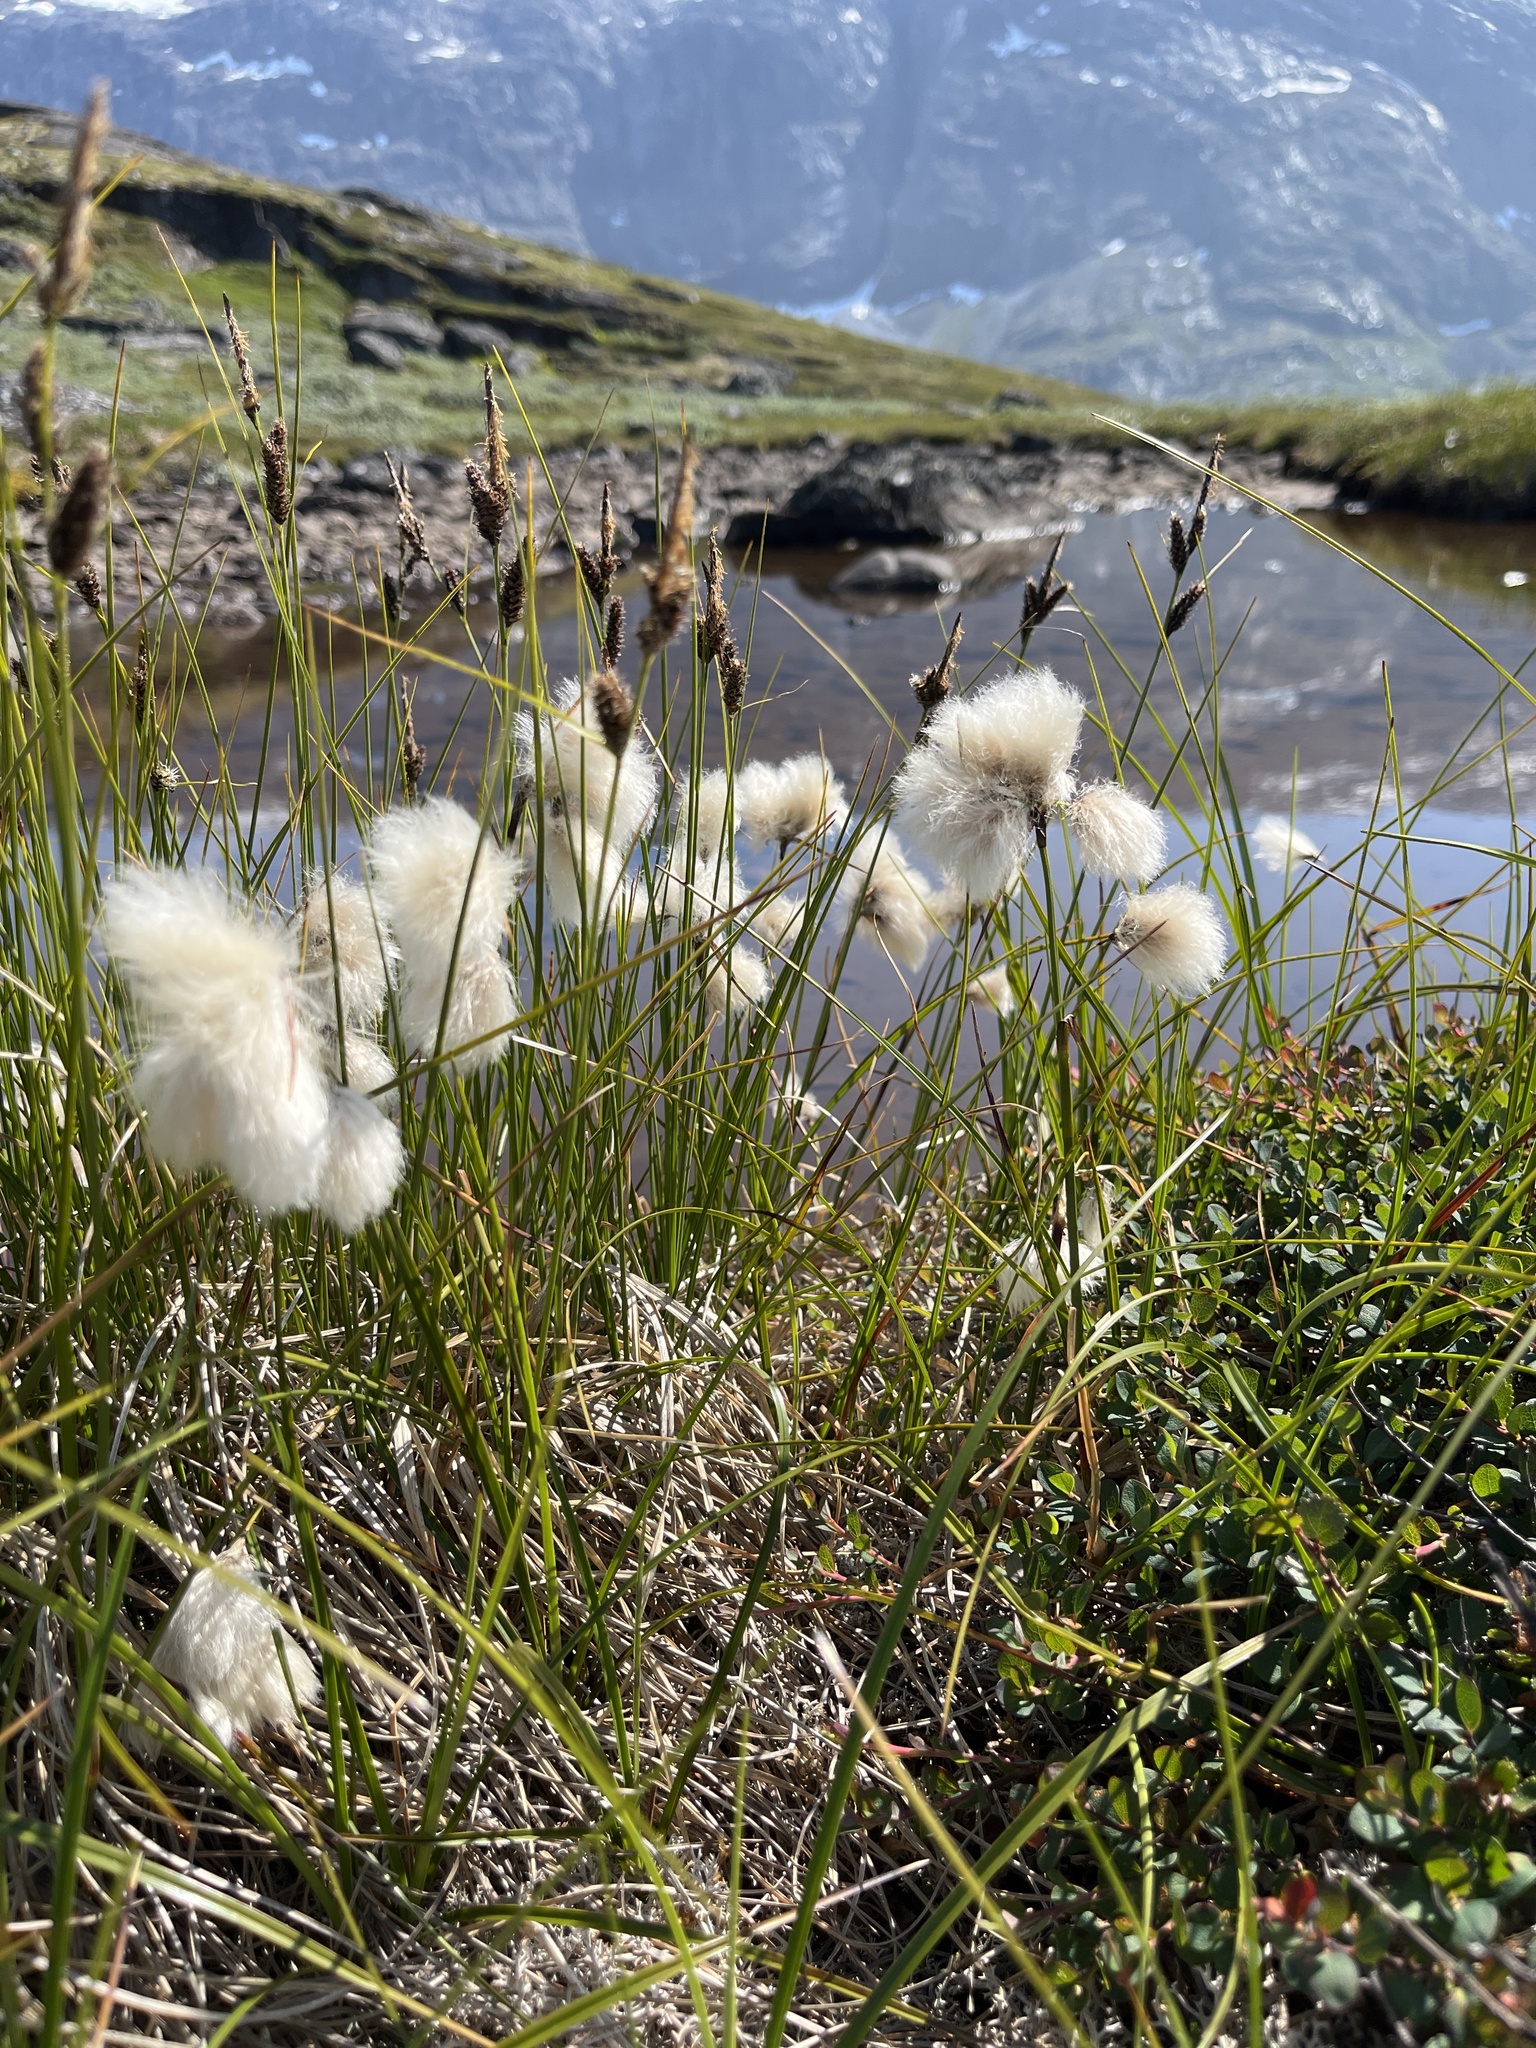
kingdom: Plantae
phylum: Tracheophyta
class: Liliopsida
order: Poales
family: Cyperaceae
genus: Eriophorum
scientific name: Eriophorum angustifolium
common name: Common cottongrass
